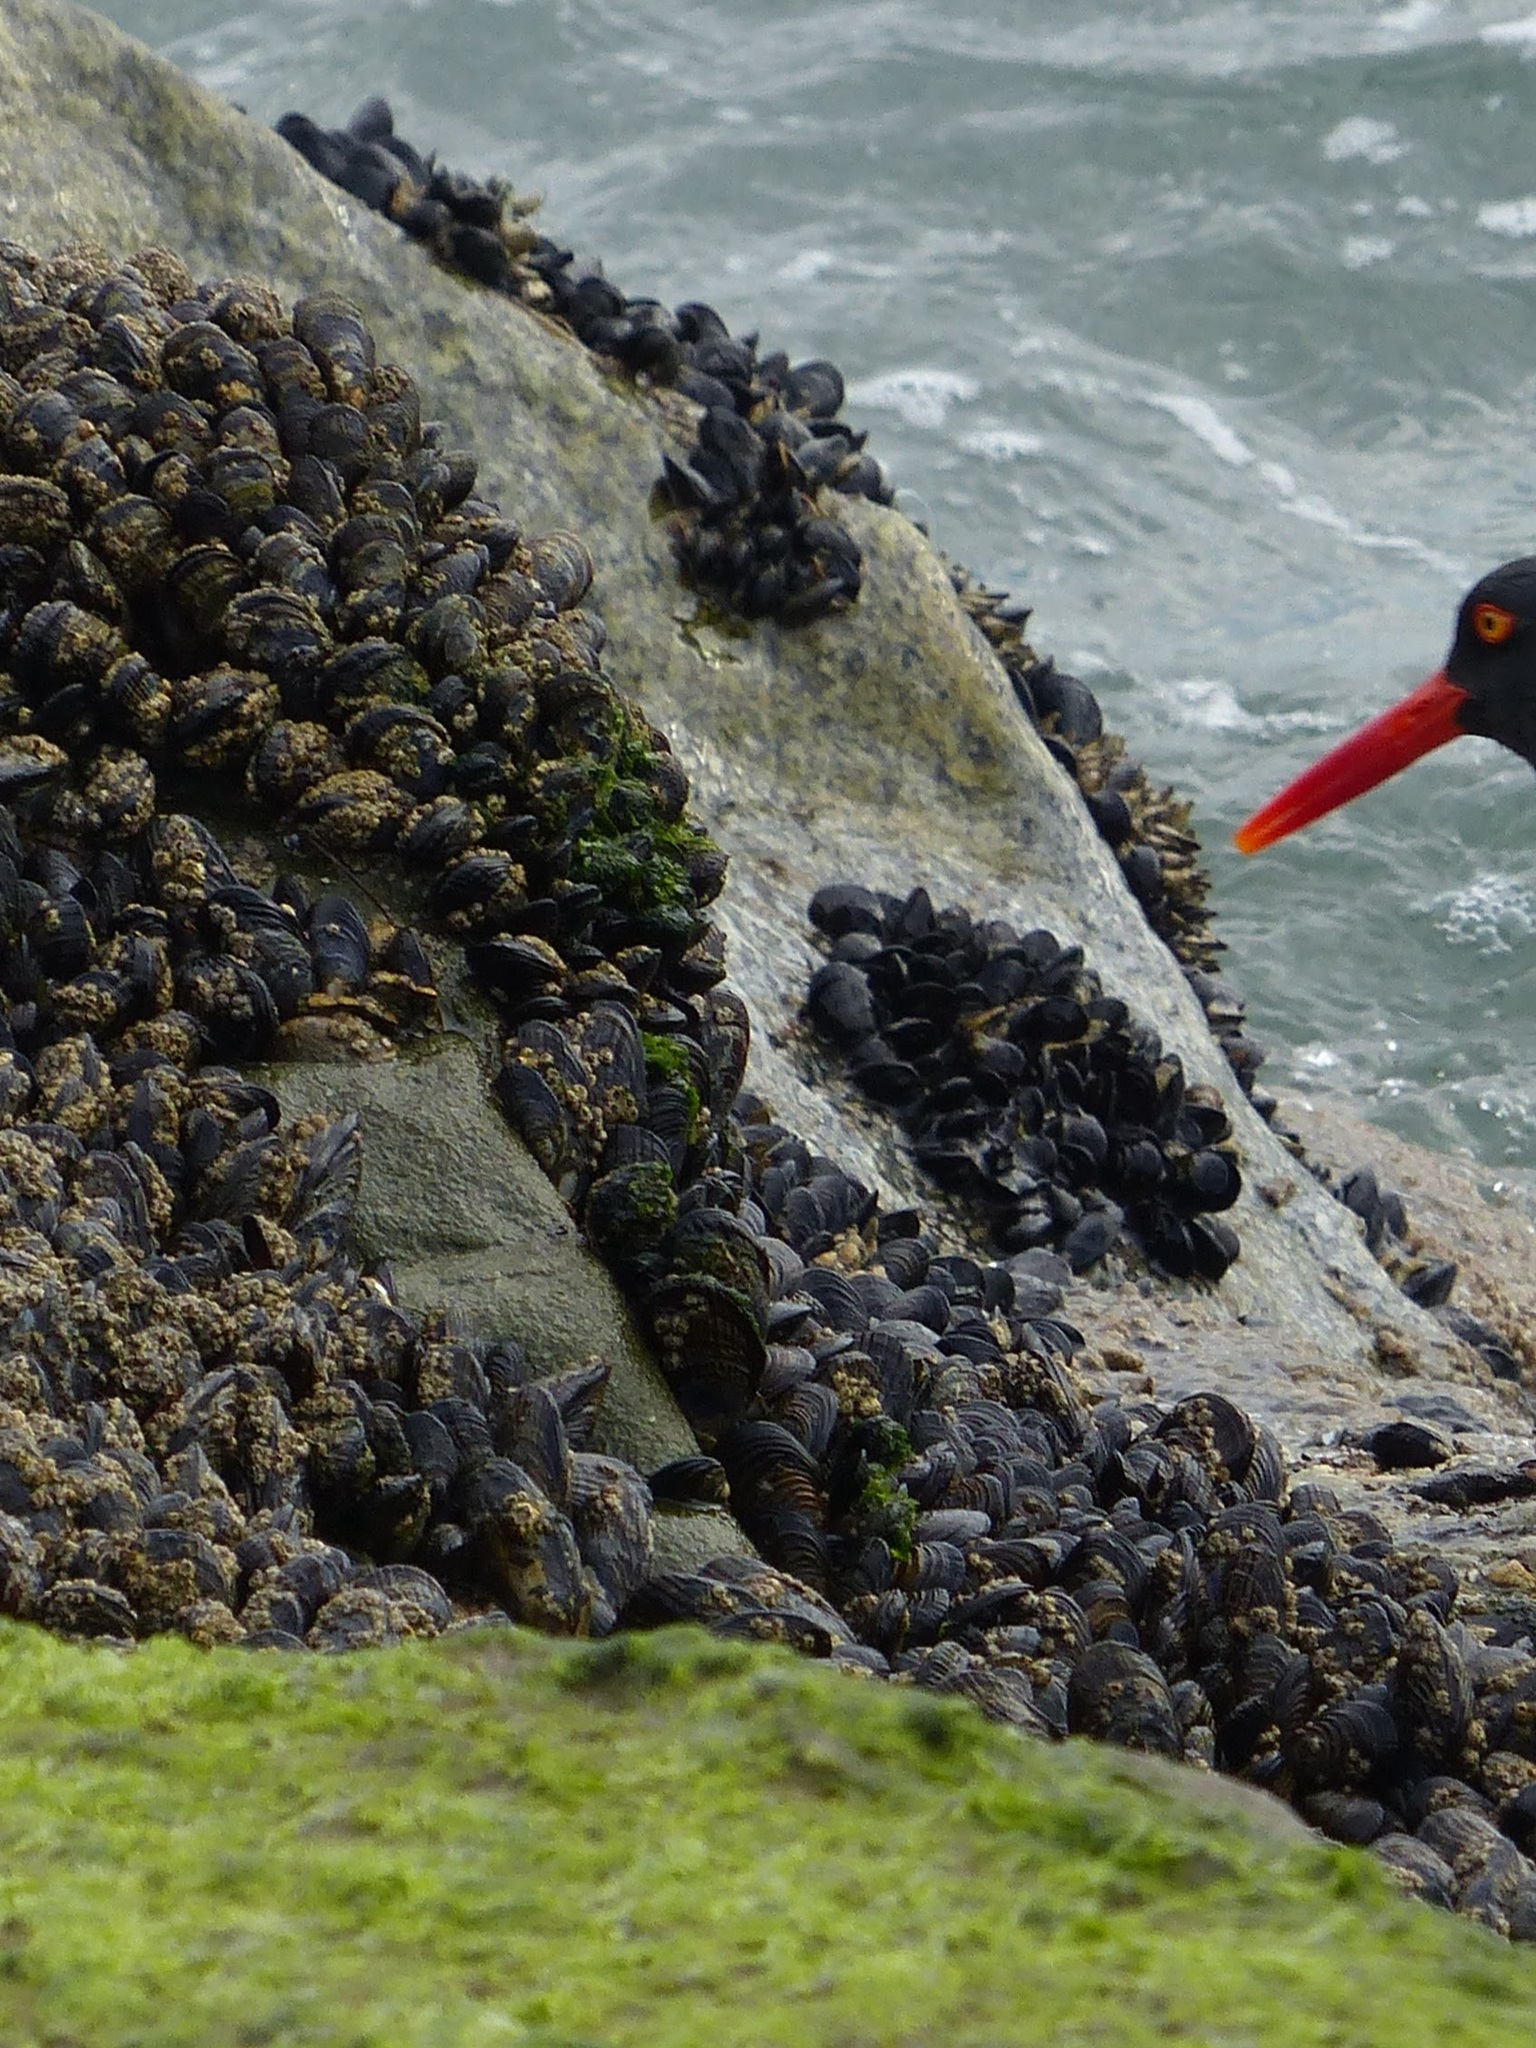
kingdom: Animalia
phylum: Mollusca
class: Bivalvia
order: Mytilida
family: Mytilidae
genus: Mytilus
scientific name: Mytilus californianus
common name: California mussel
